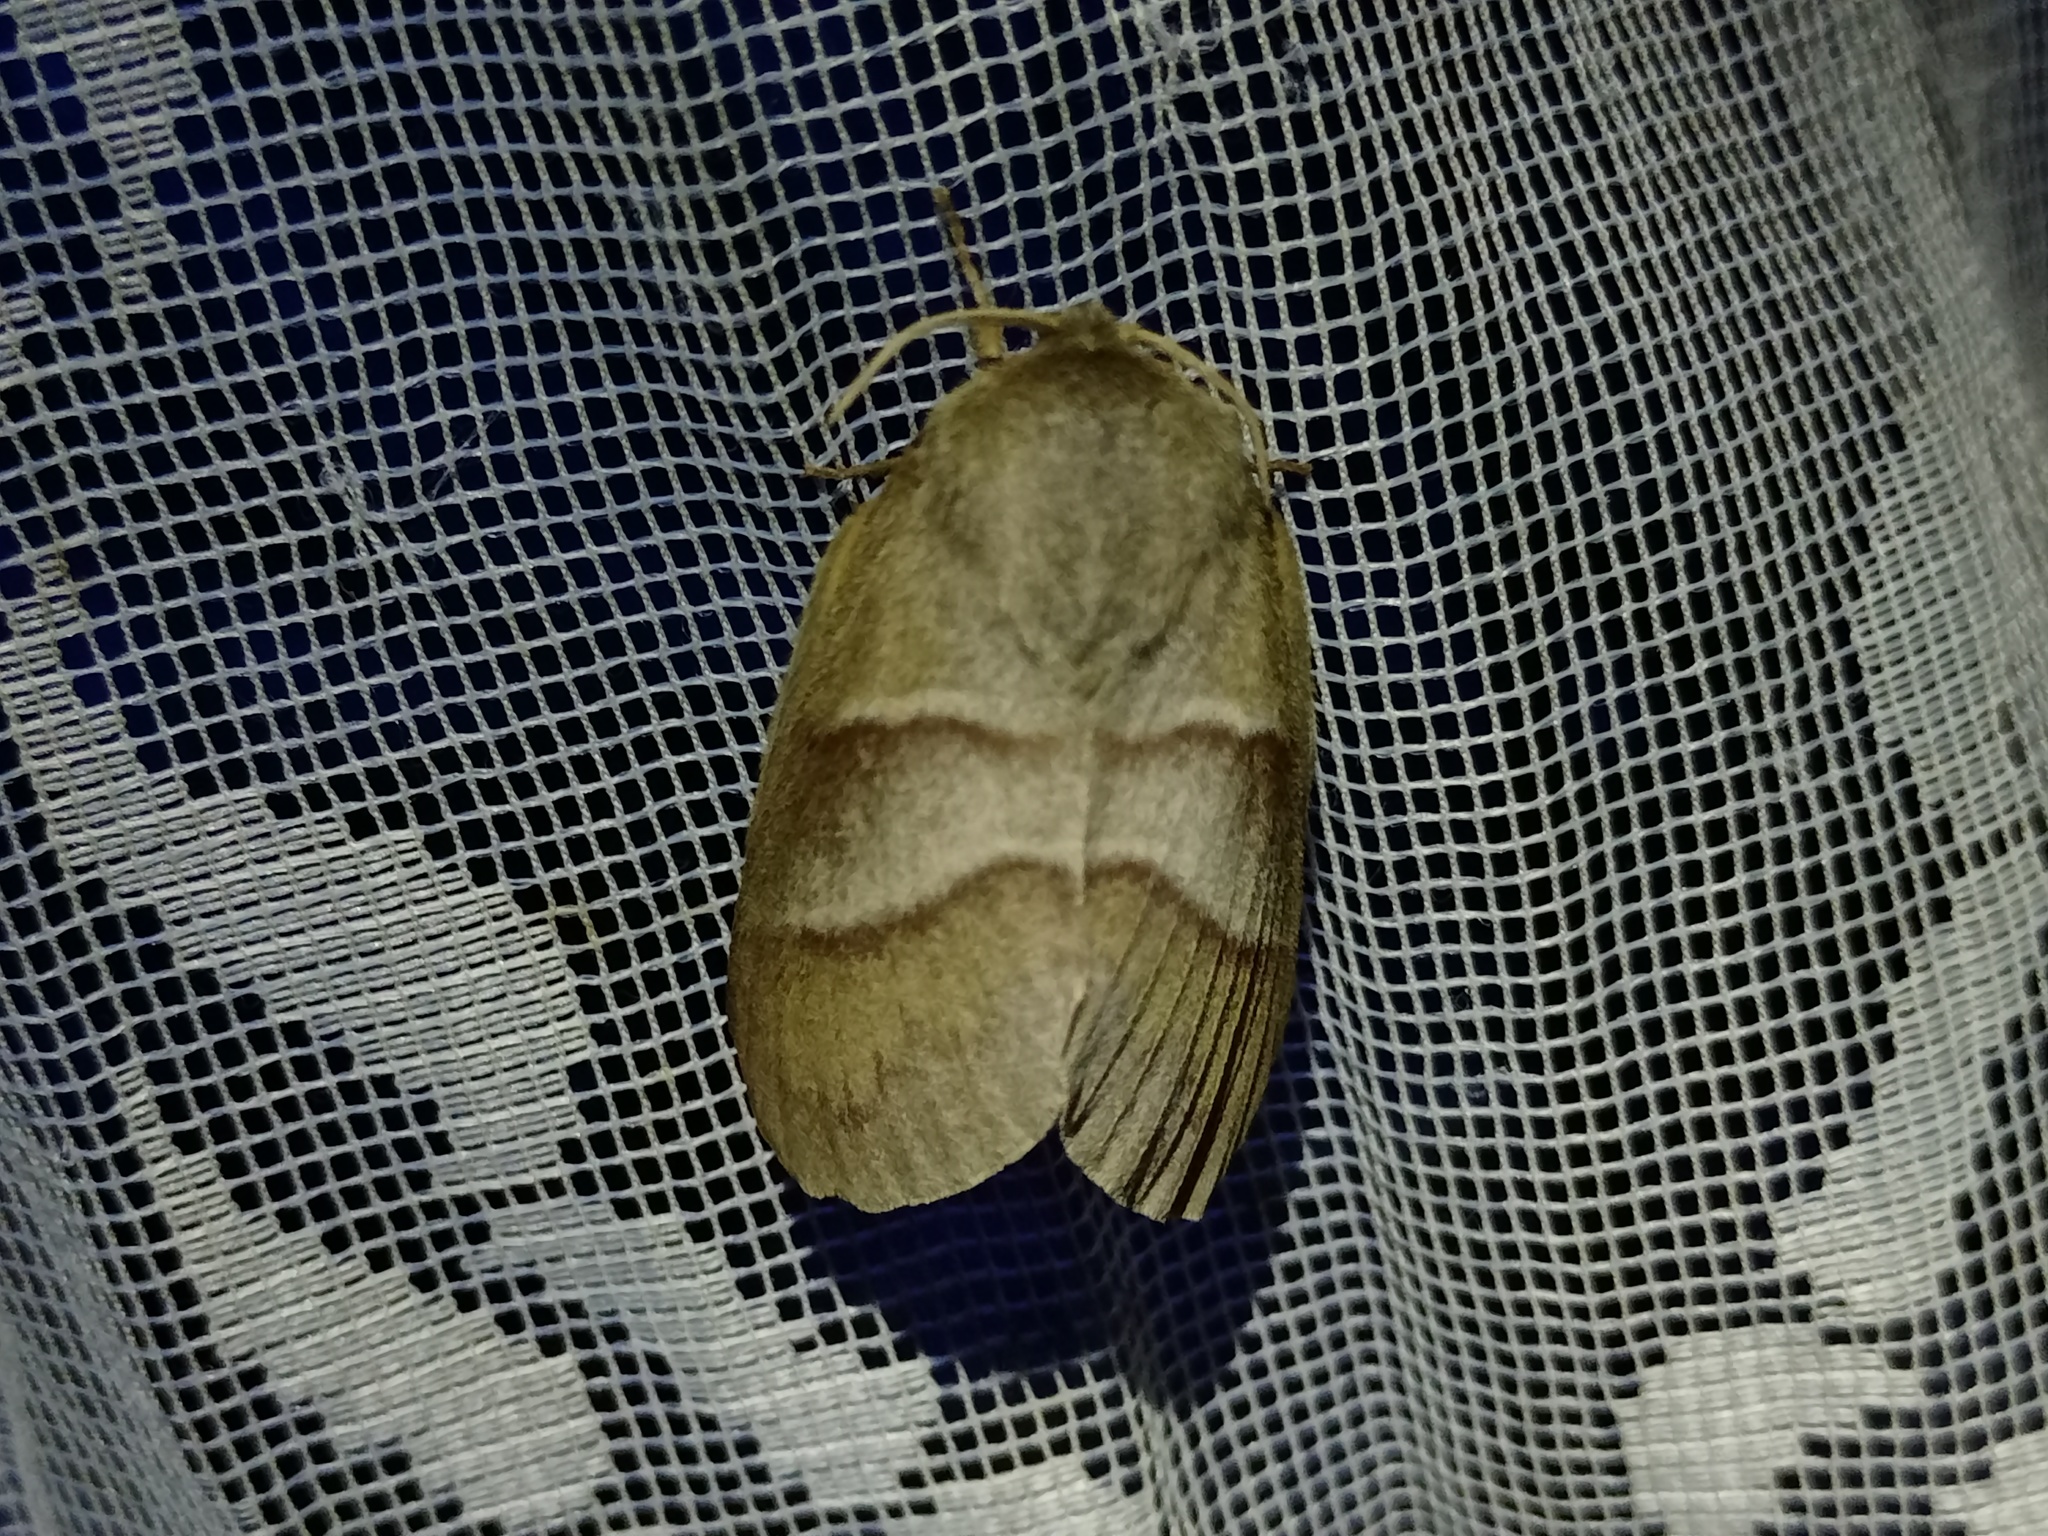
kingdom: Animalia
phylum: Arthropoda
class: Insecta
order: Lepidoptera
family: Lasiocampidae
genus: Macrothylacia
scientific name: Macrothylacia rubi
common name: Fox moth
